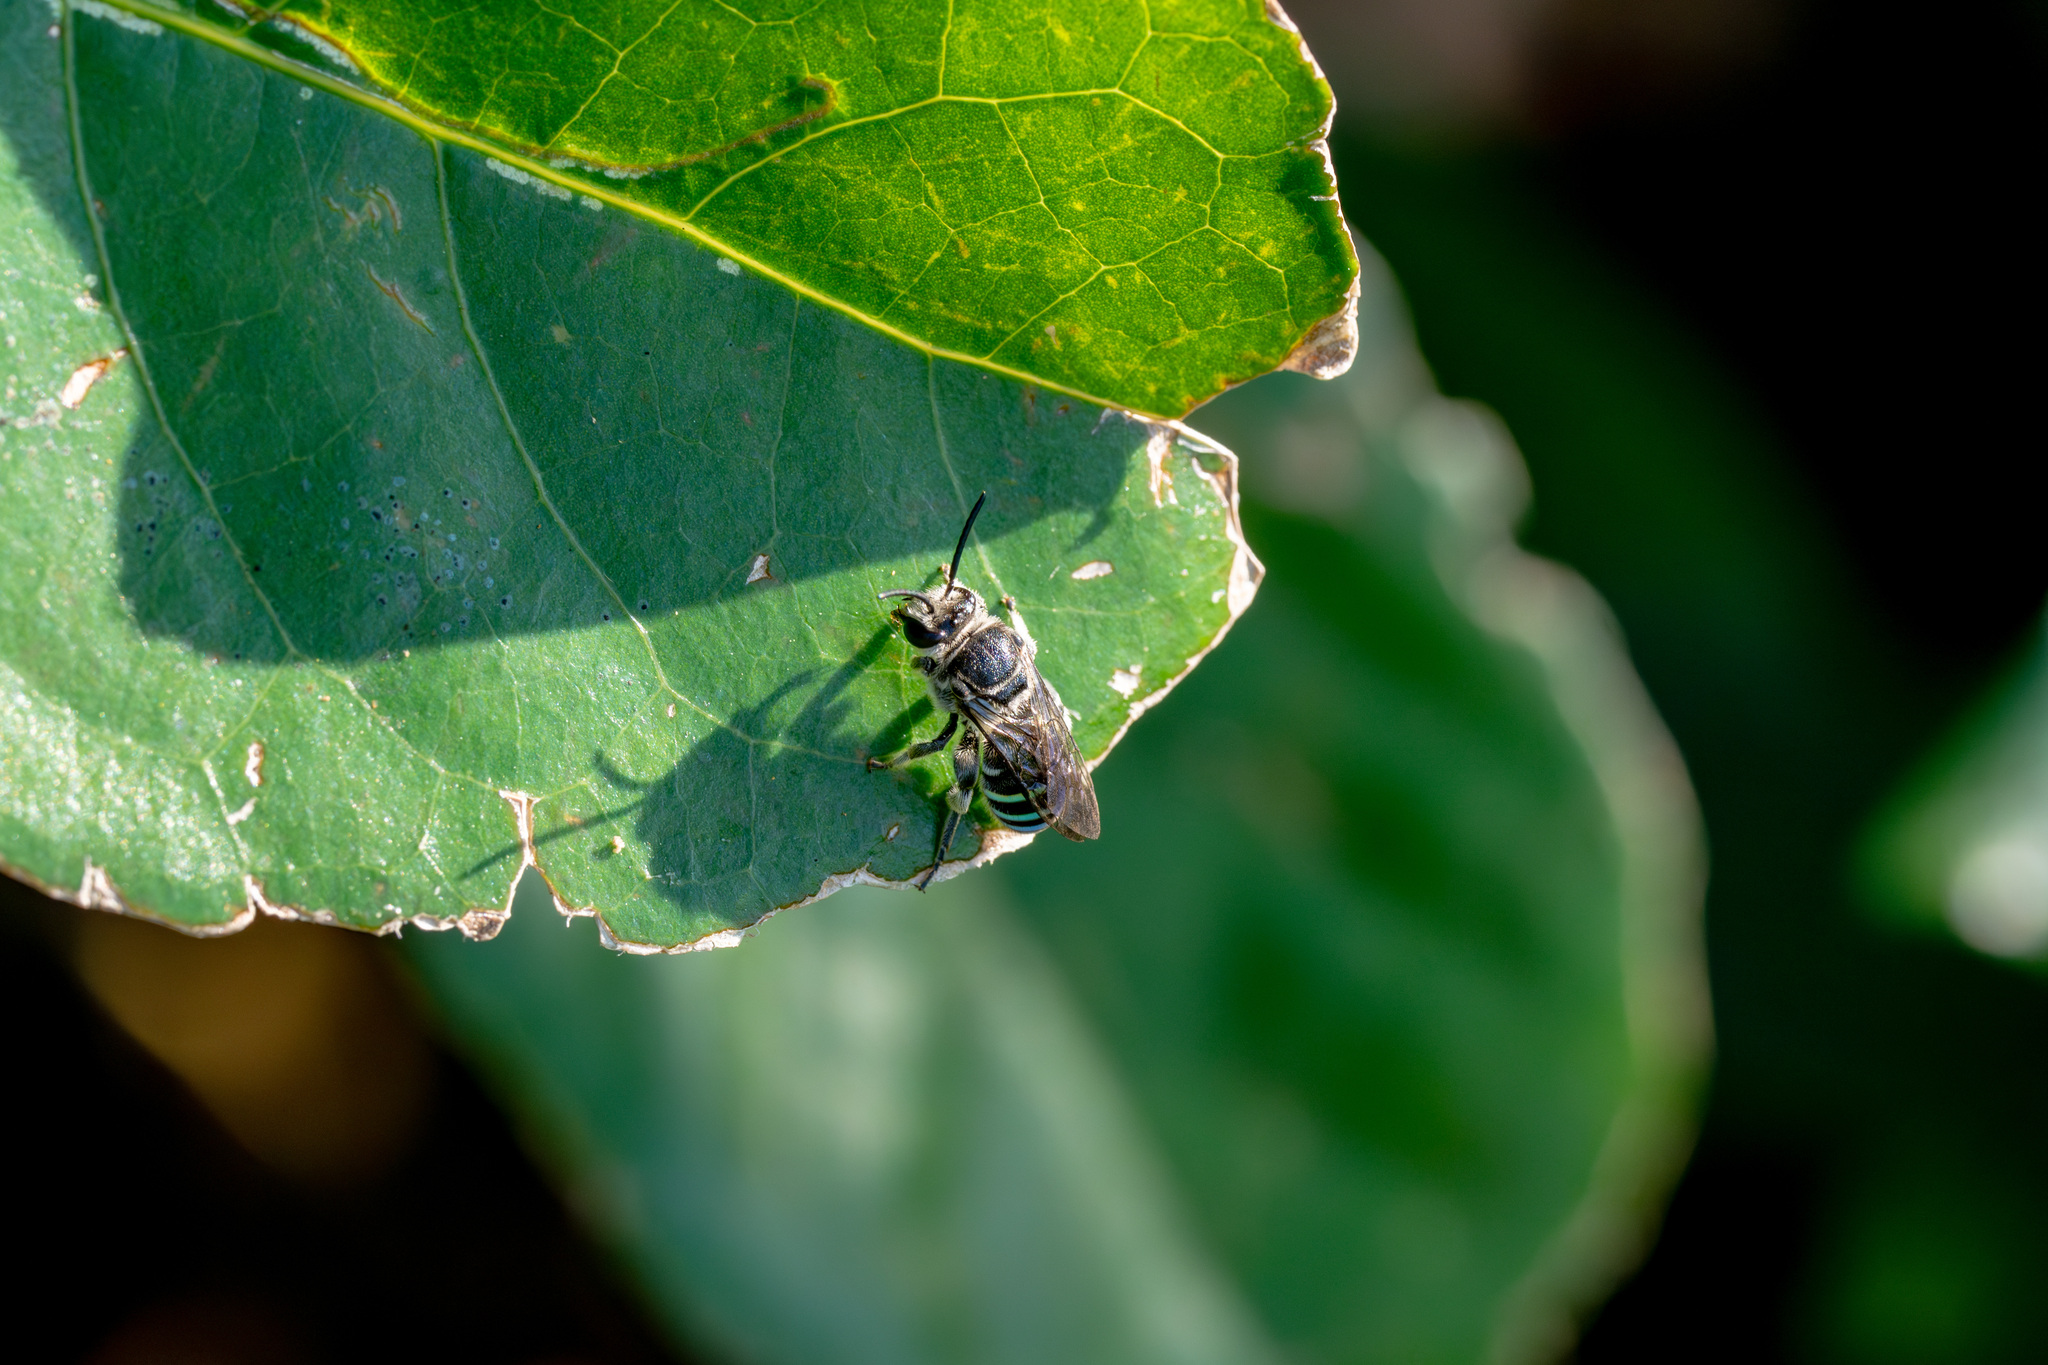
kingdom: Animalia
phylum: Arthropoda
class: Insecta
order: Hymenoptera
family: Halictidae
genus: Nomia
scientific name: Nomia incerta
